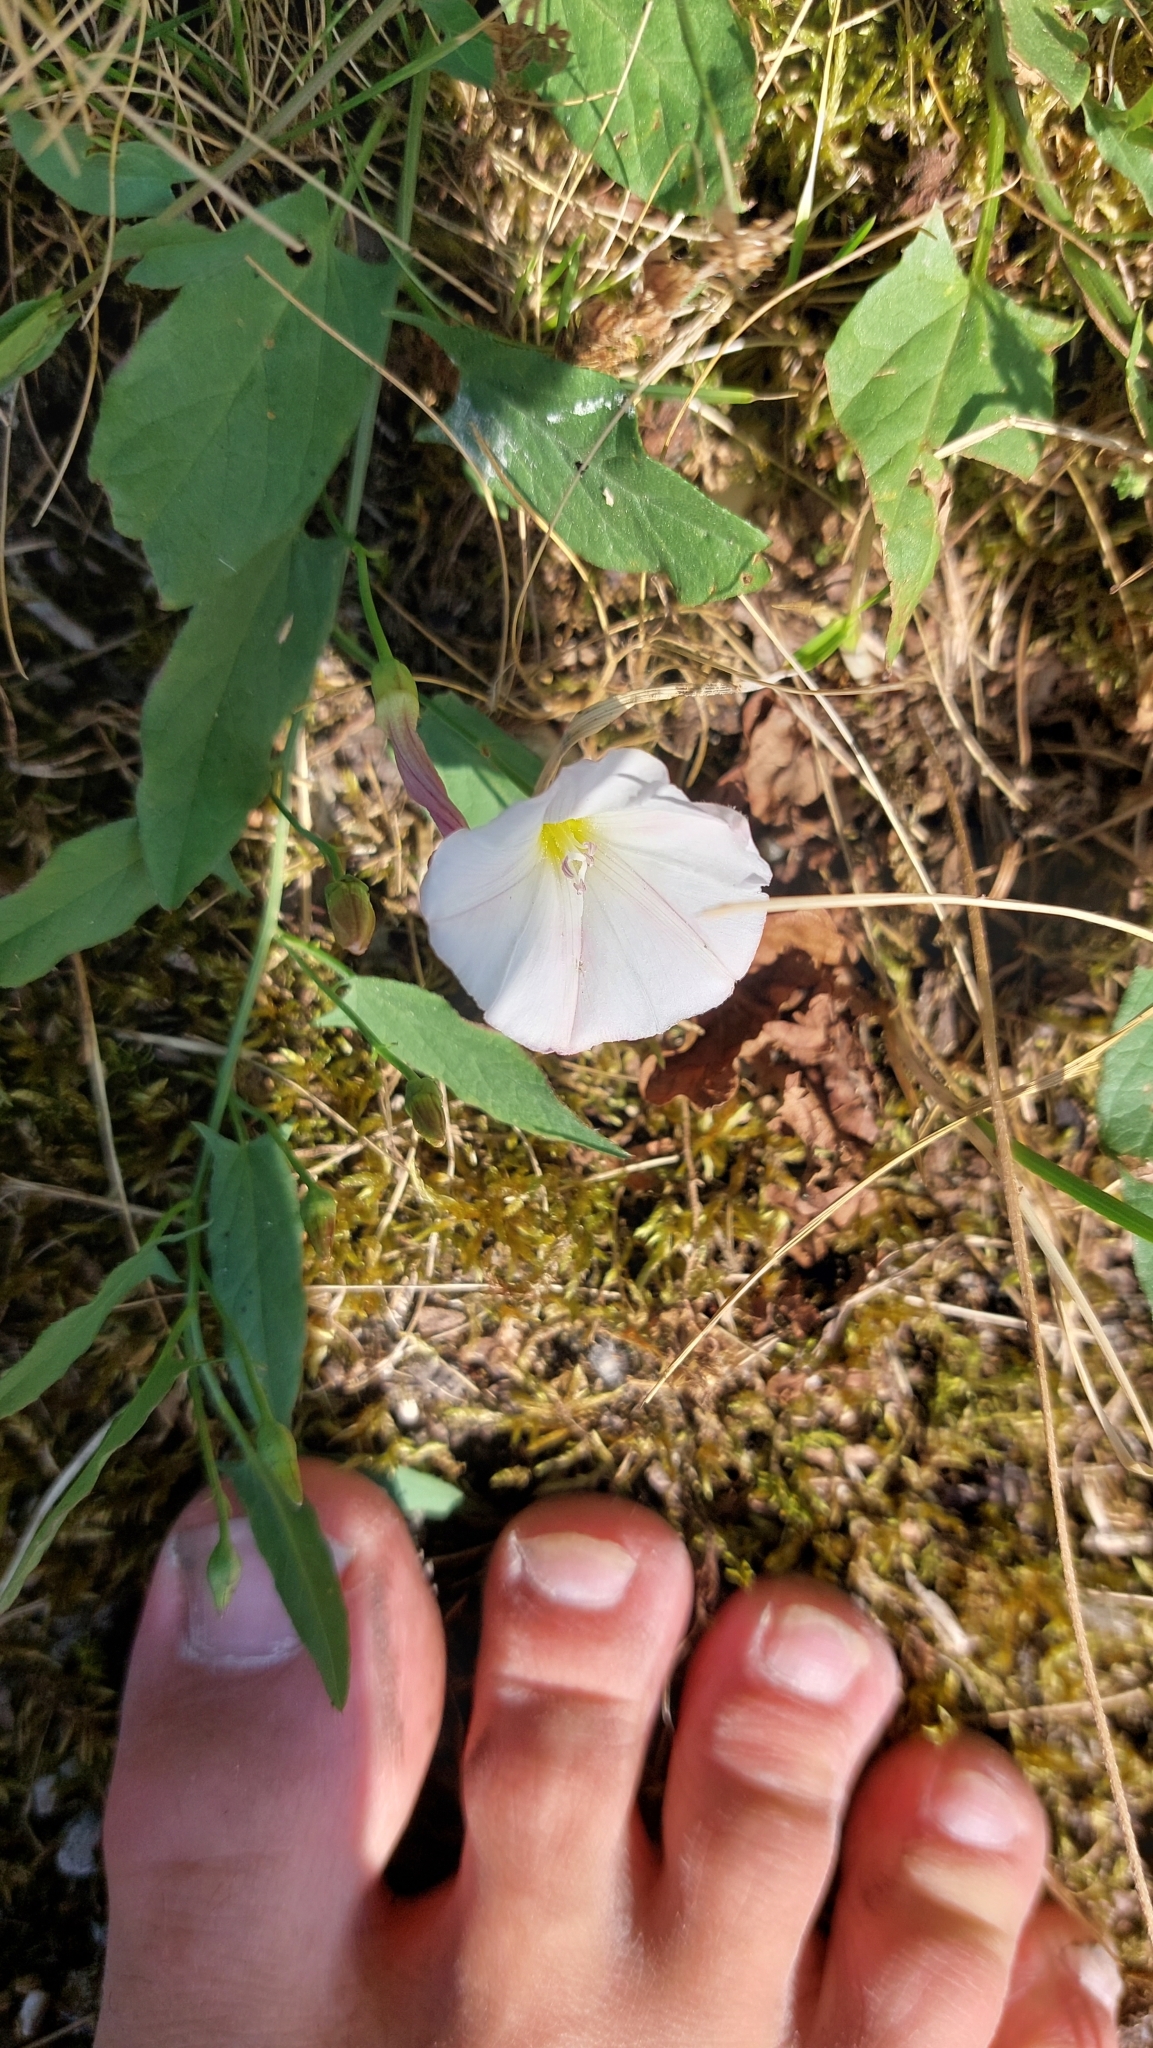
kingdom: Plantae
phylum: Tracheophyta
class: Magnoliopsida
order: Solanales
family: Convolvulaceae
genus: Convolvulus
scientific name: Convolvulus arvensis
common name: Field bindweed
